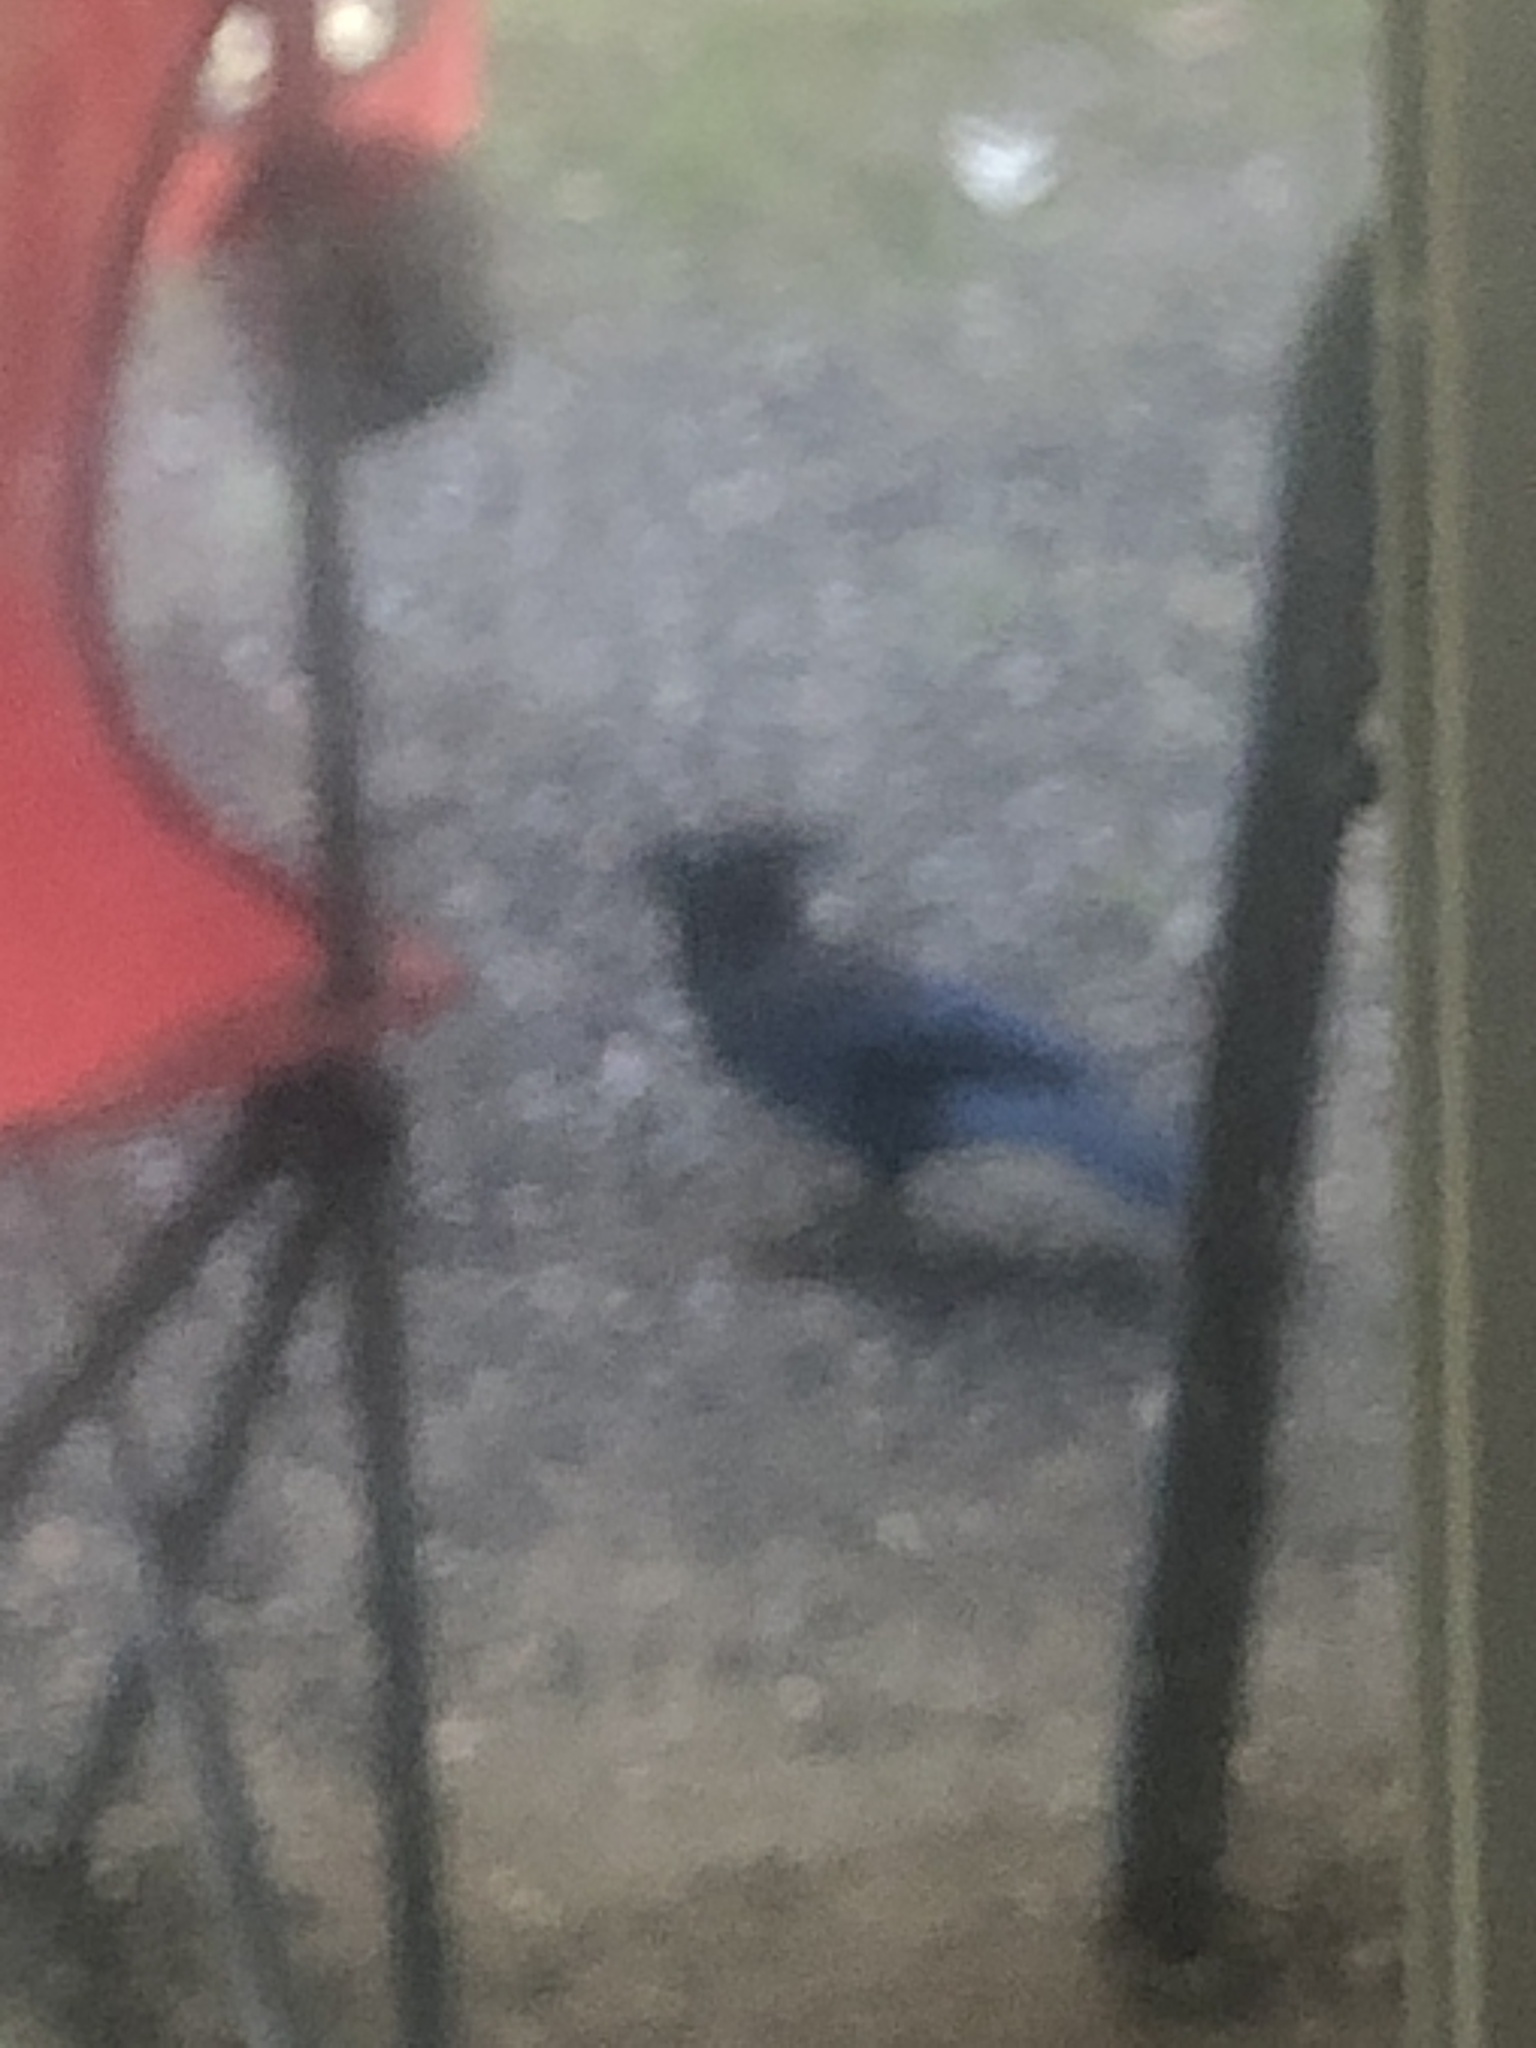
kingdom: Animalia
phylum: Chordata
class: Aves
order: Passeriformes
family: Corvidae
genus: Cyanocitta
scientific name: Cyanocitta stelleri
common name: Steller's jay
